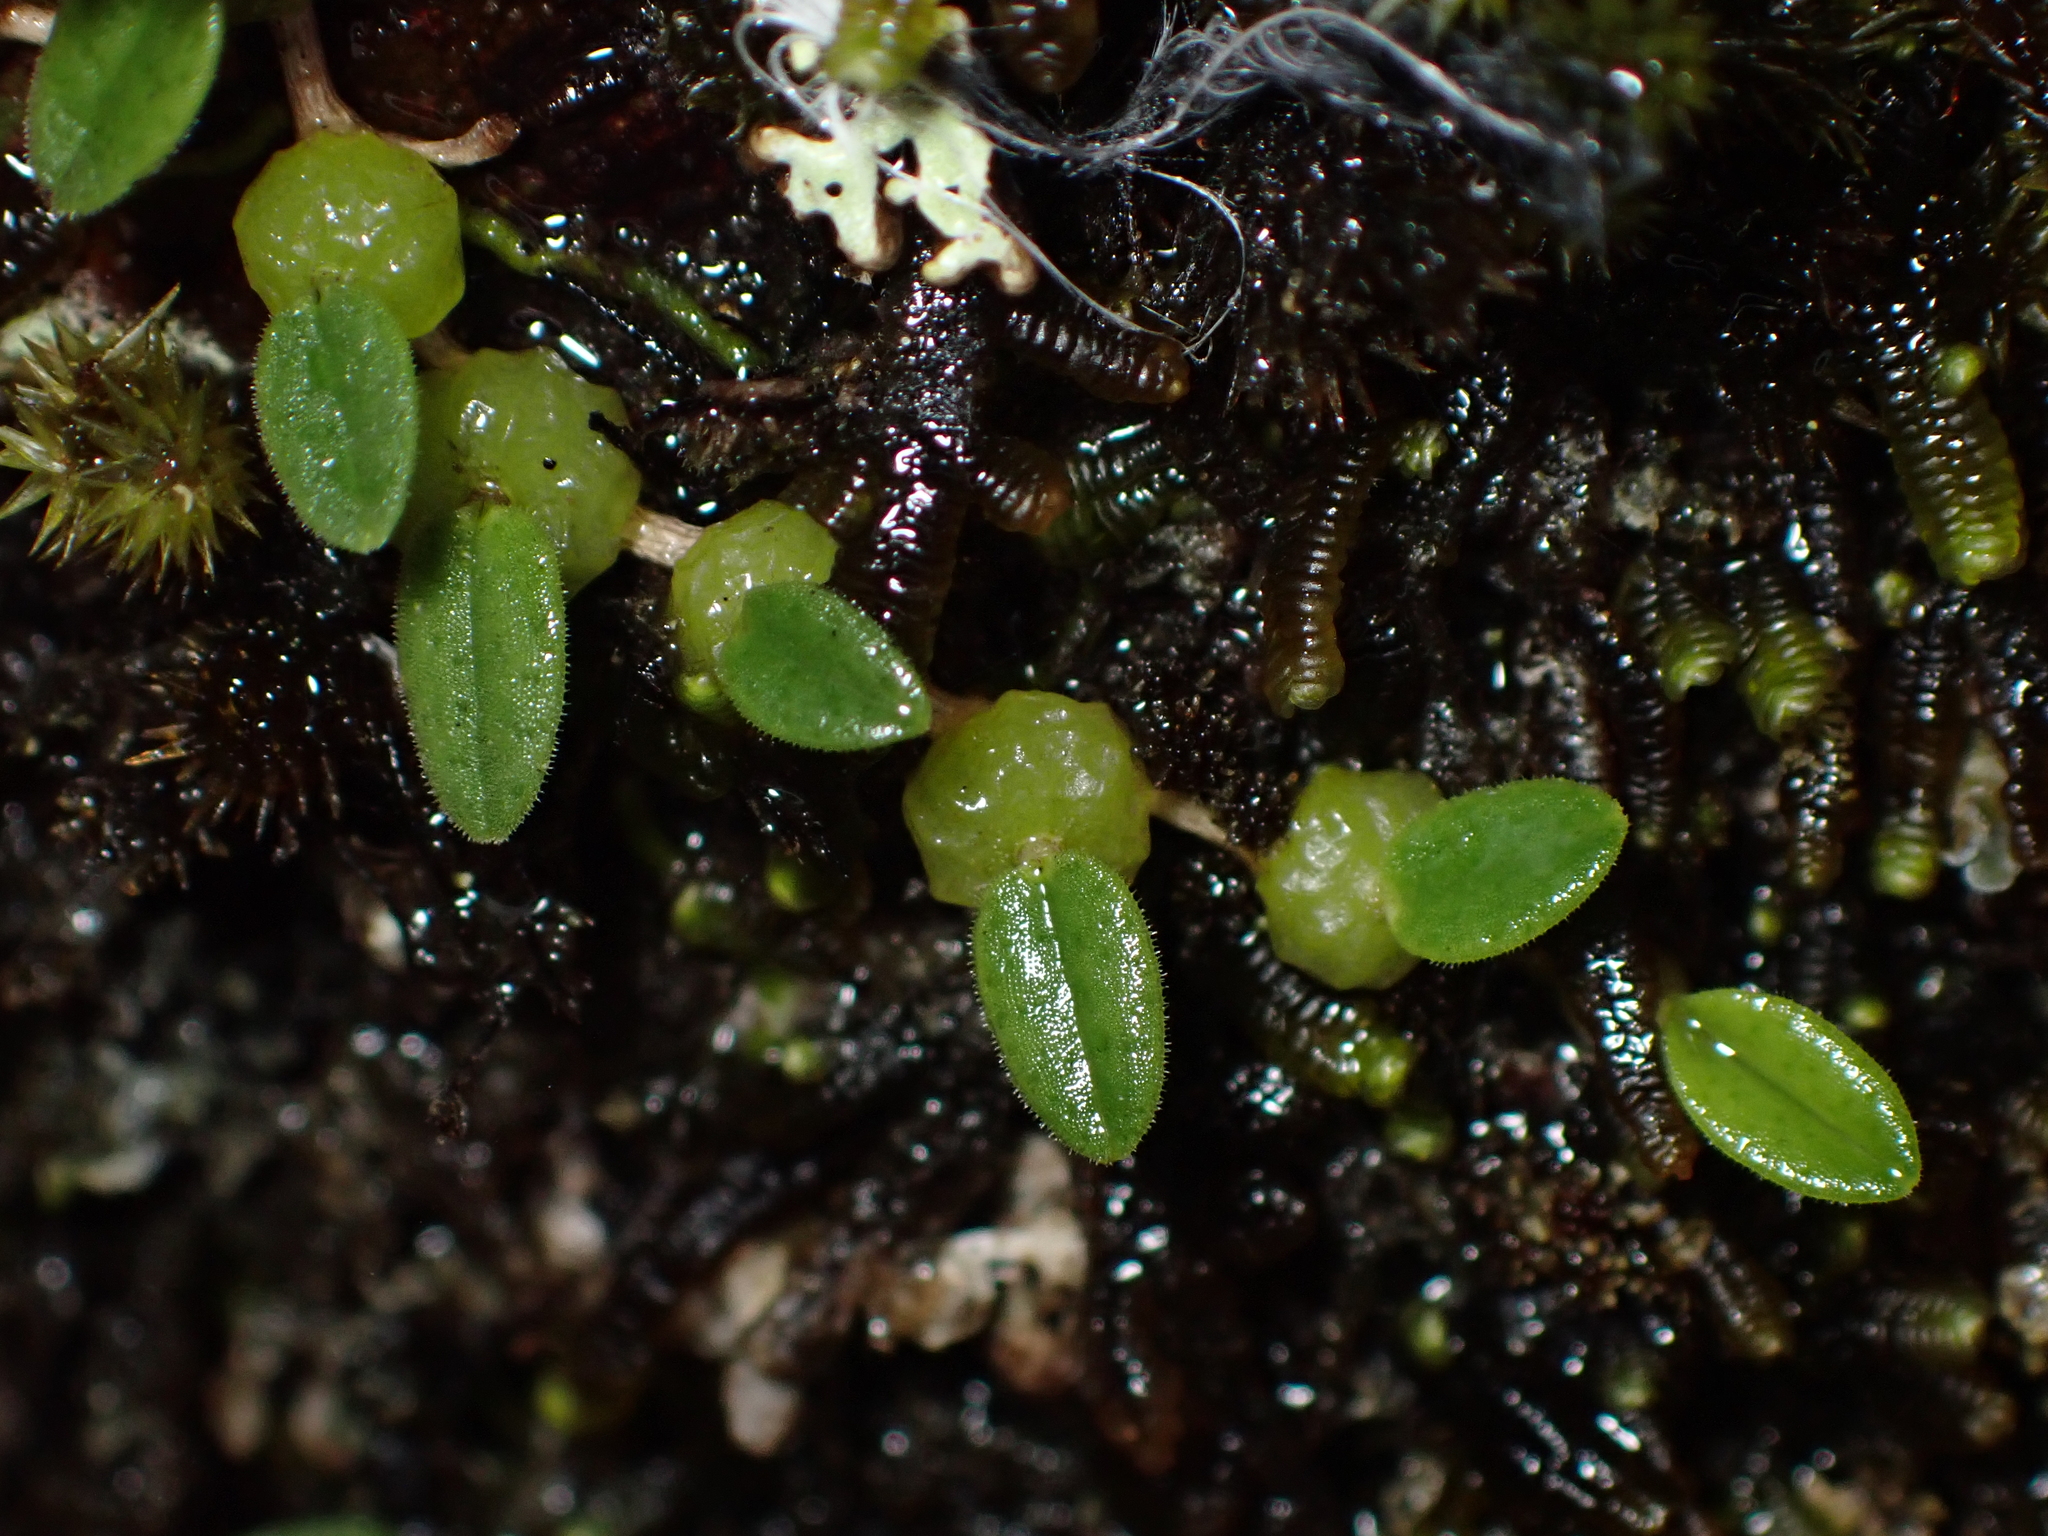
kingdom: Plantae
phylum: Tracheophyta
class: Liliopsida
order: Asparagales
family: Orchidaceae
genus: Bulbophyllum
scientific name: Bulbophyllum pygmaeum
